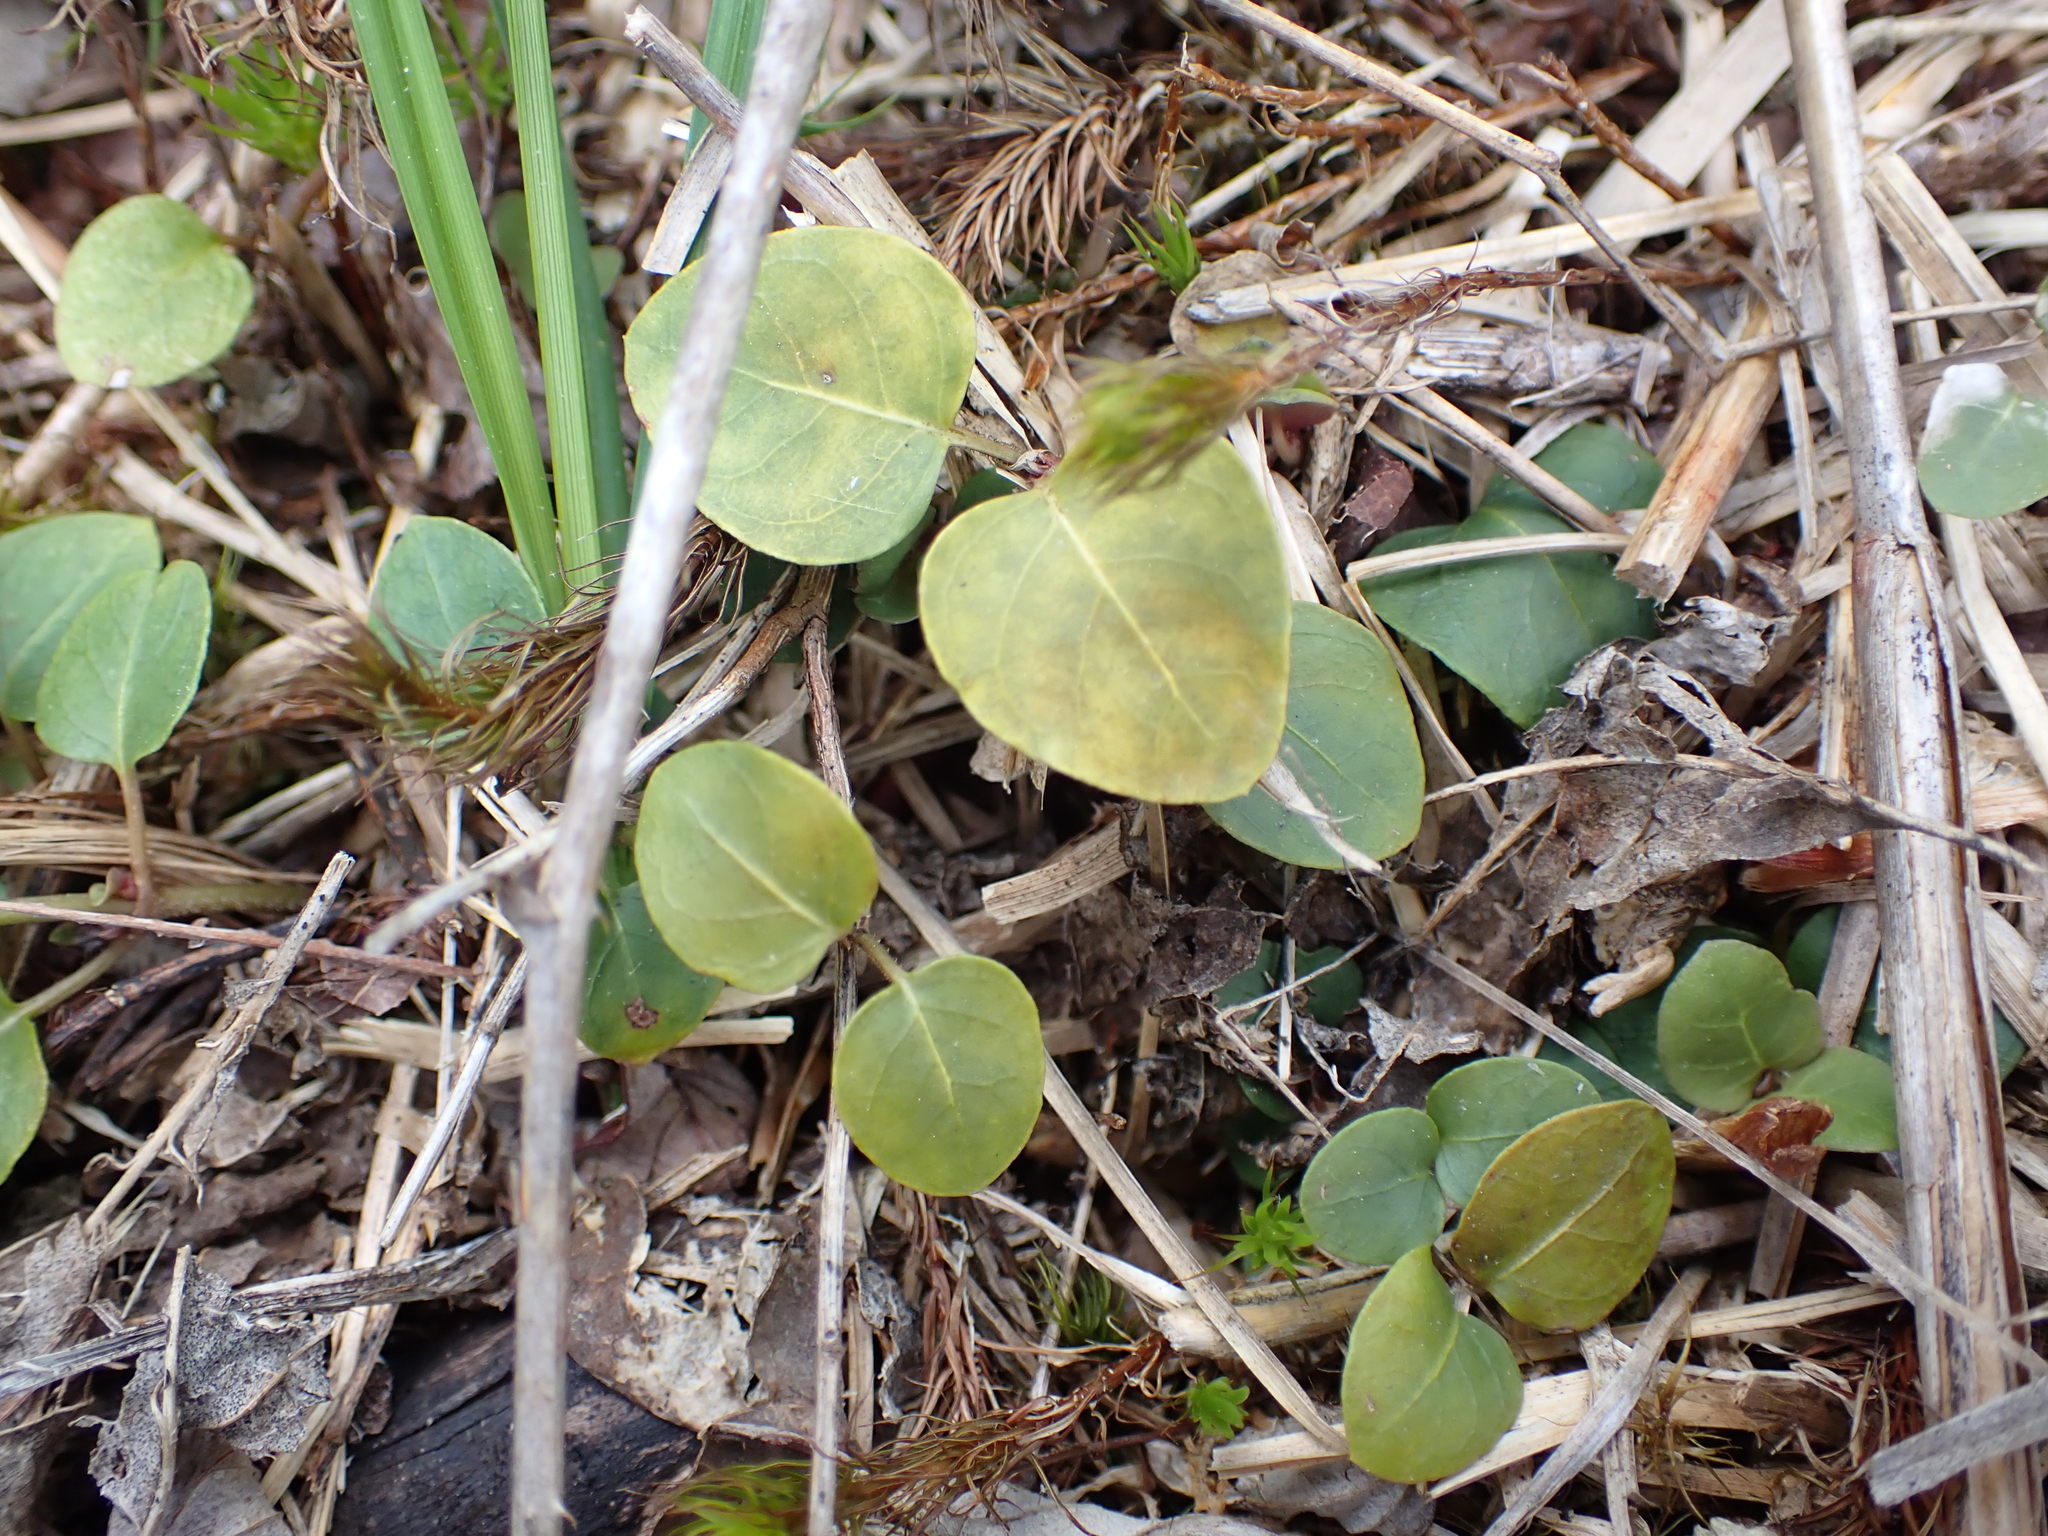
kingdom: Plantae
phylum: Tracheophyta
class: Magnoliopsida
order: Gentianales
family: Rubiaceae
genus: Mitchella
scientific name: Mitchella repens
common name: Partridge-berry
